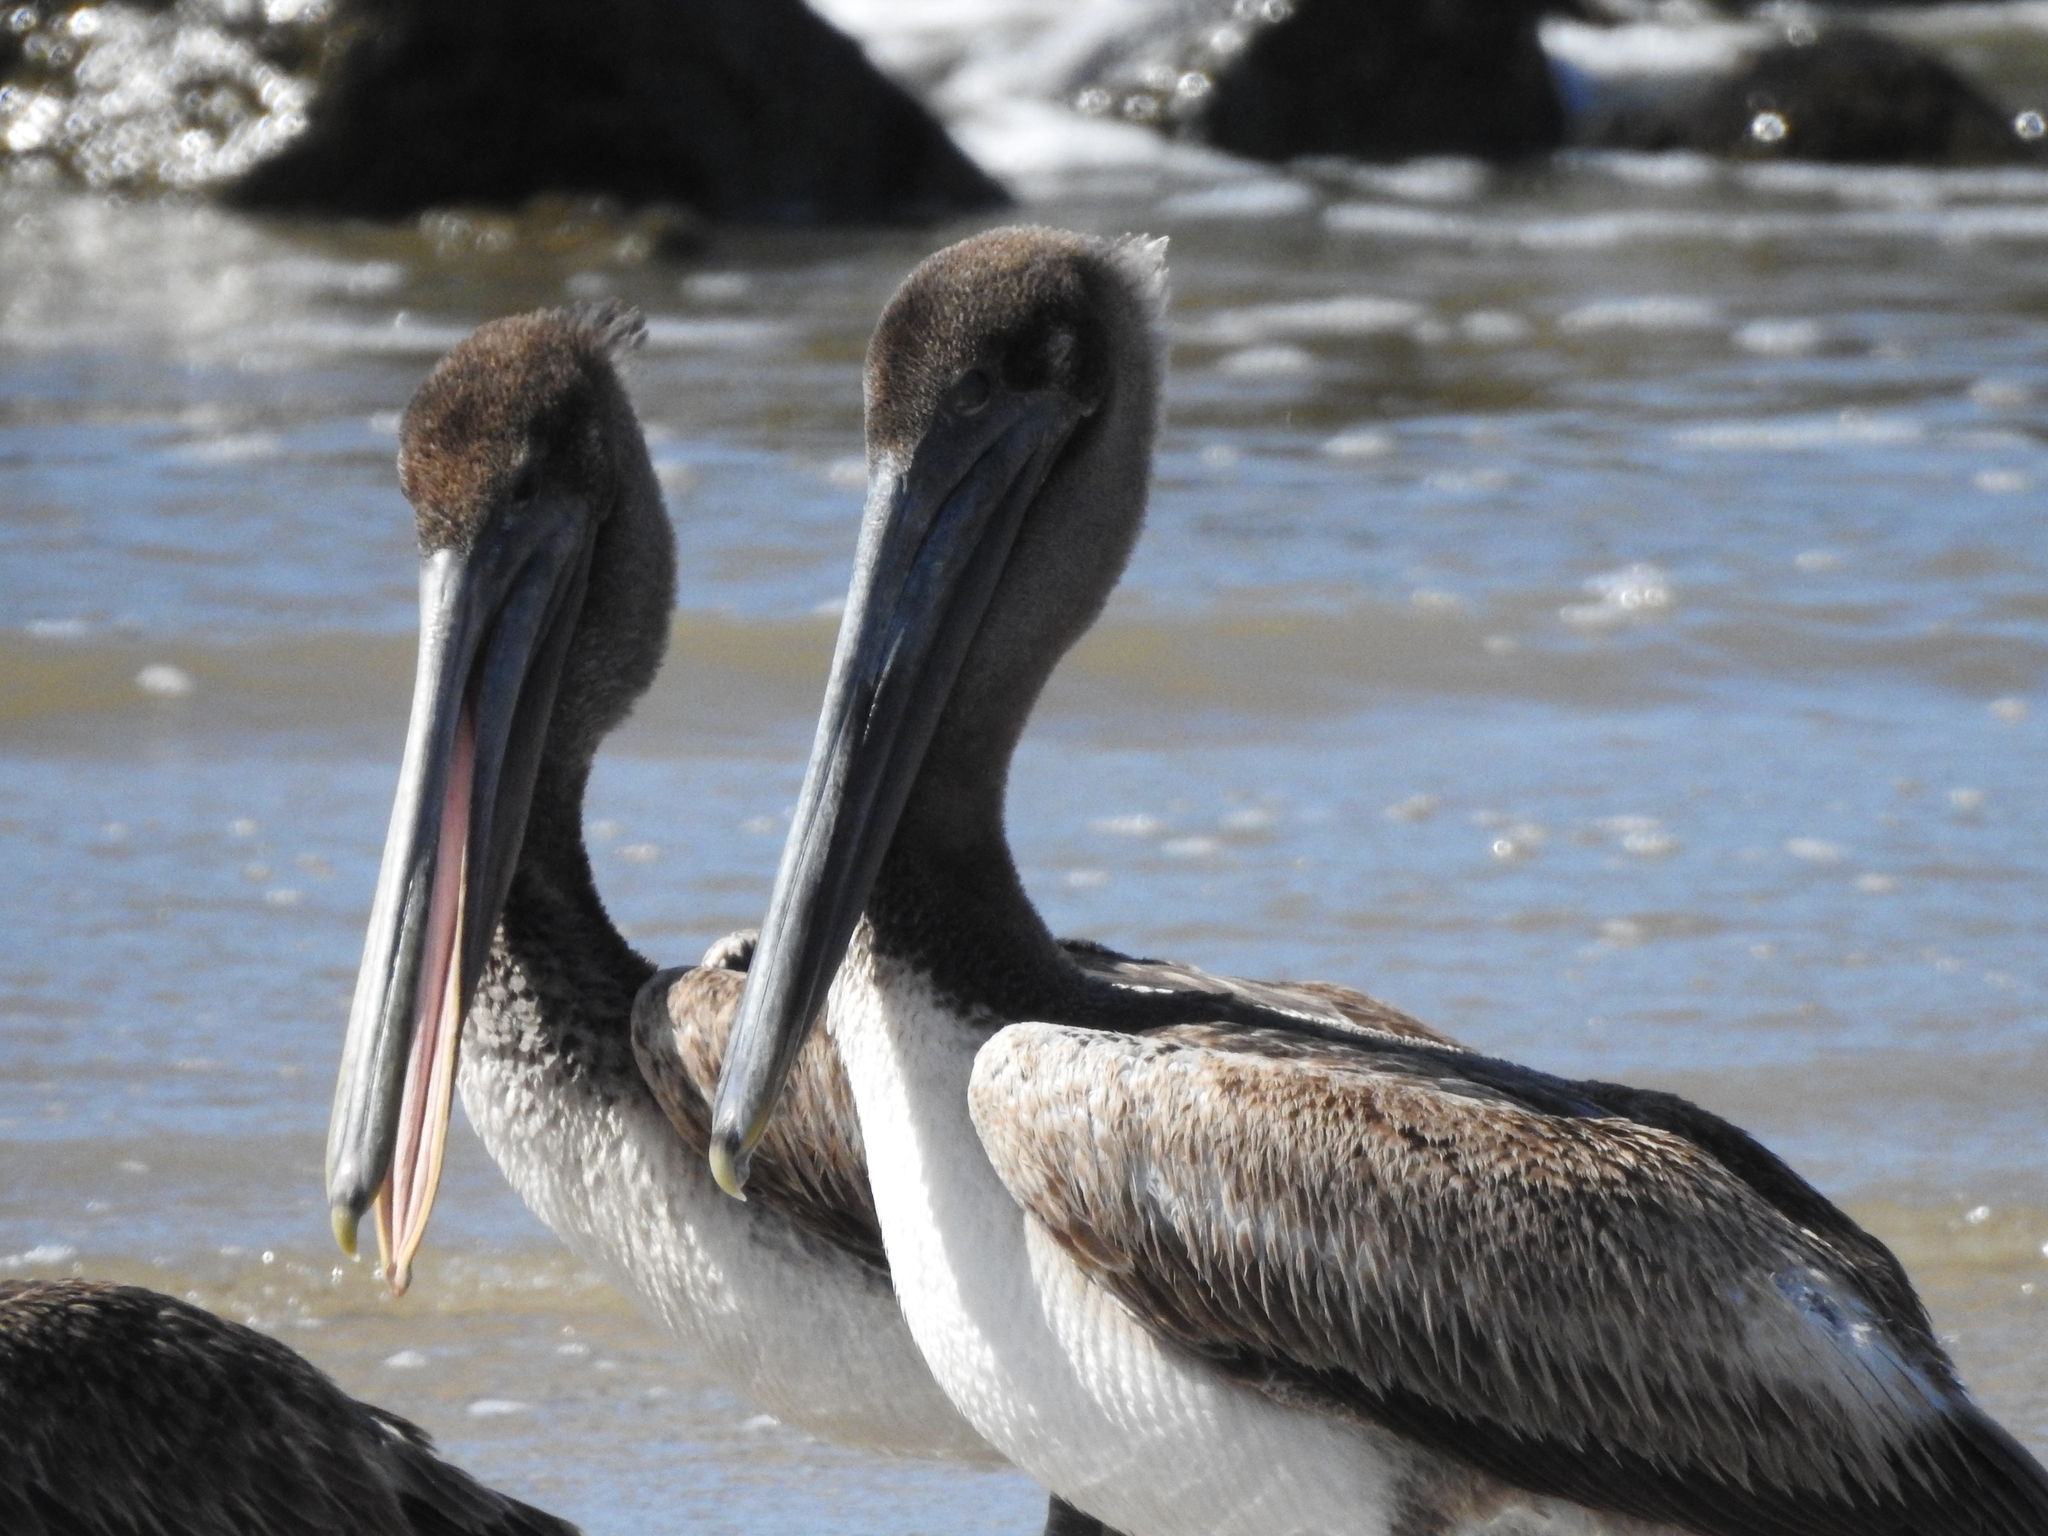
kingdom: Animalia
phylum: Chordata
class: Aves
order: Pelecaniformes
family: Pelecanidae
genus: Pelecanus
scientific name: Pelecanus occidentalis
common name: Brown pelican
